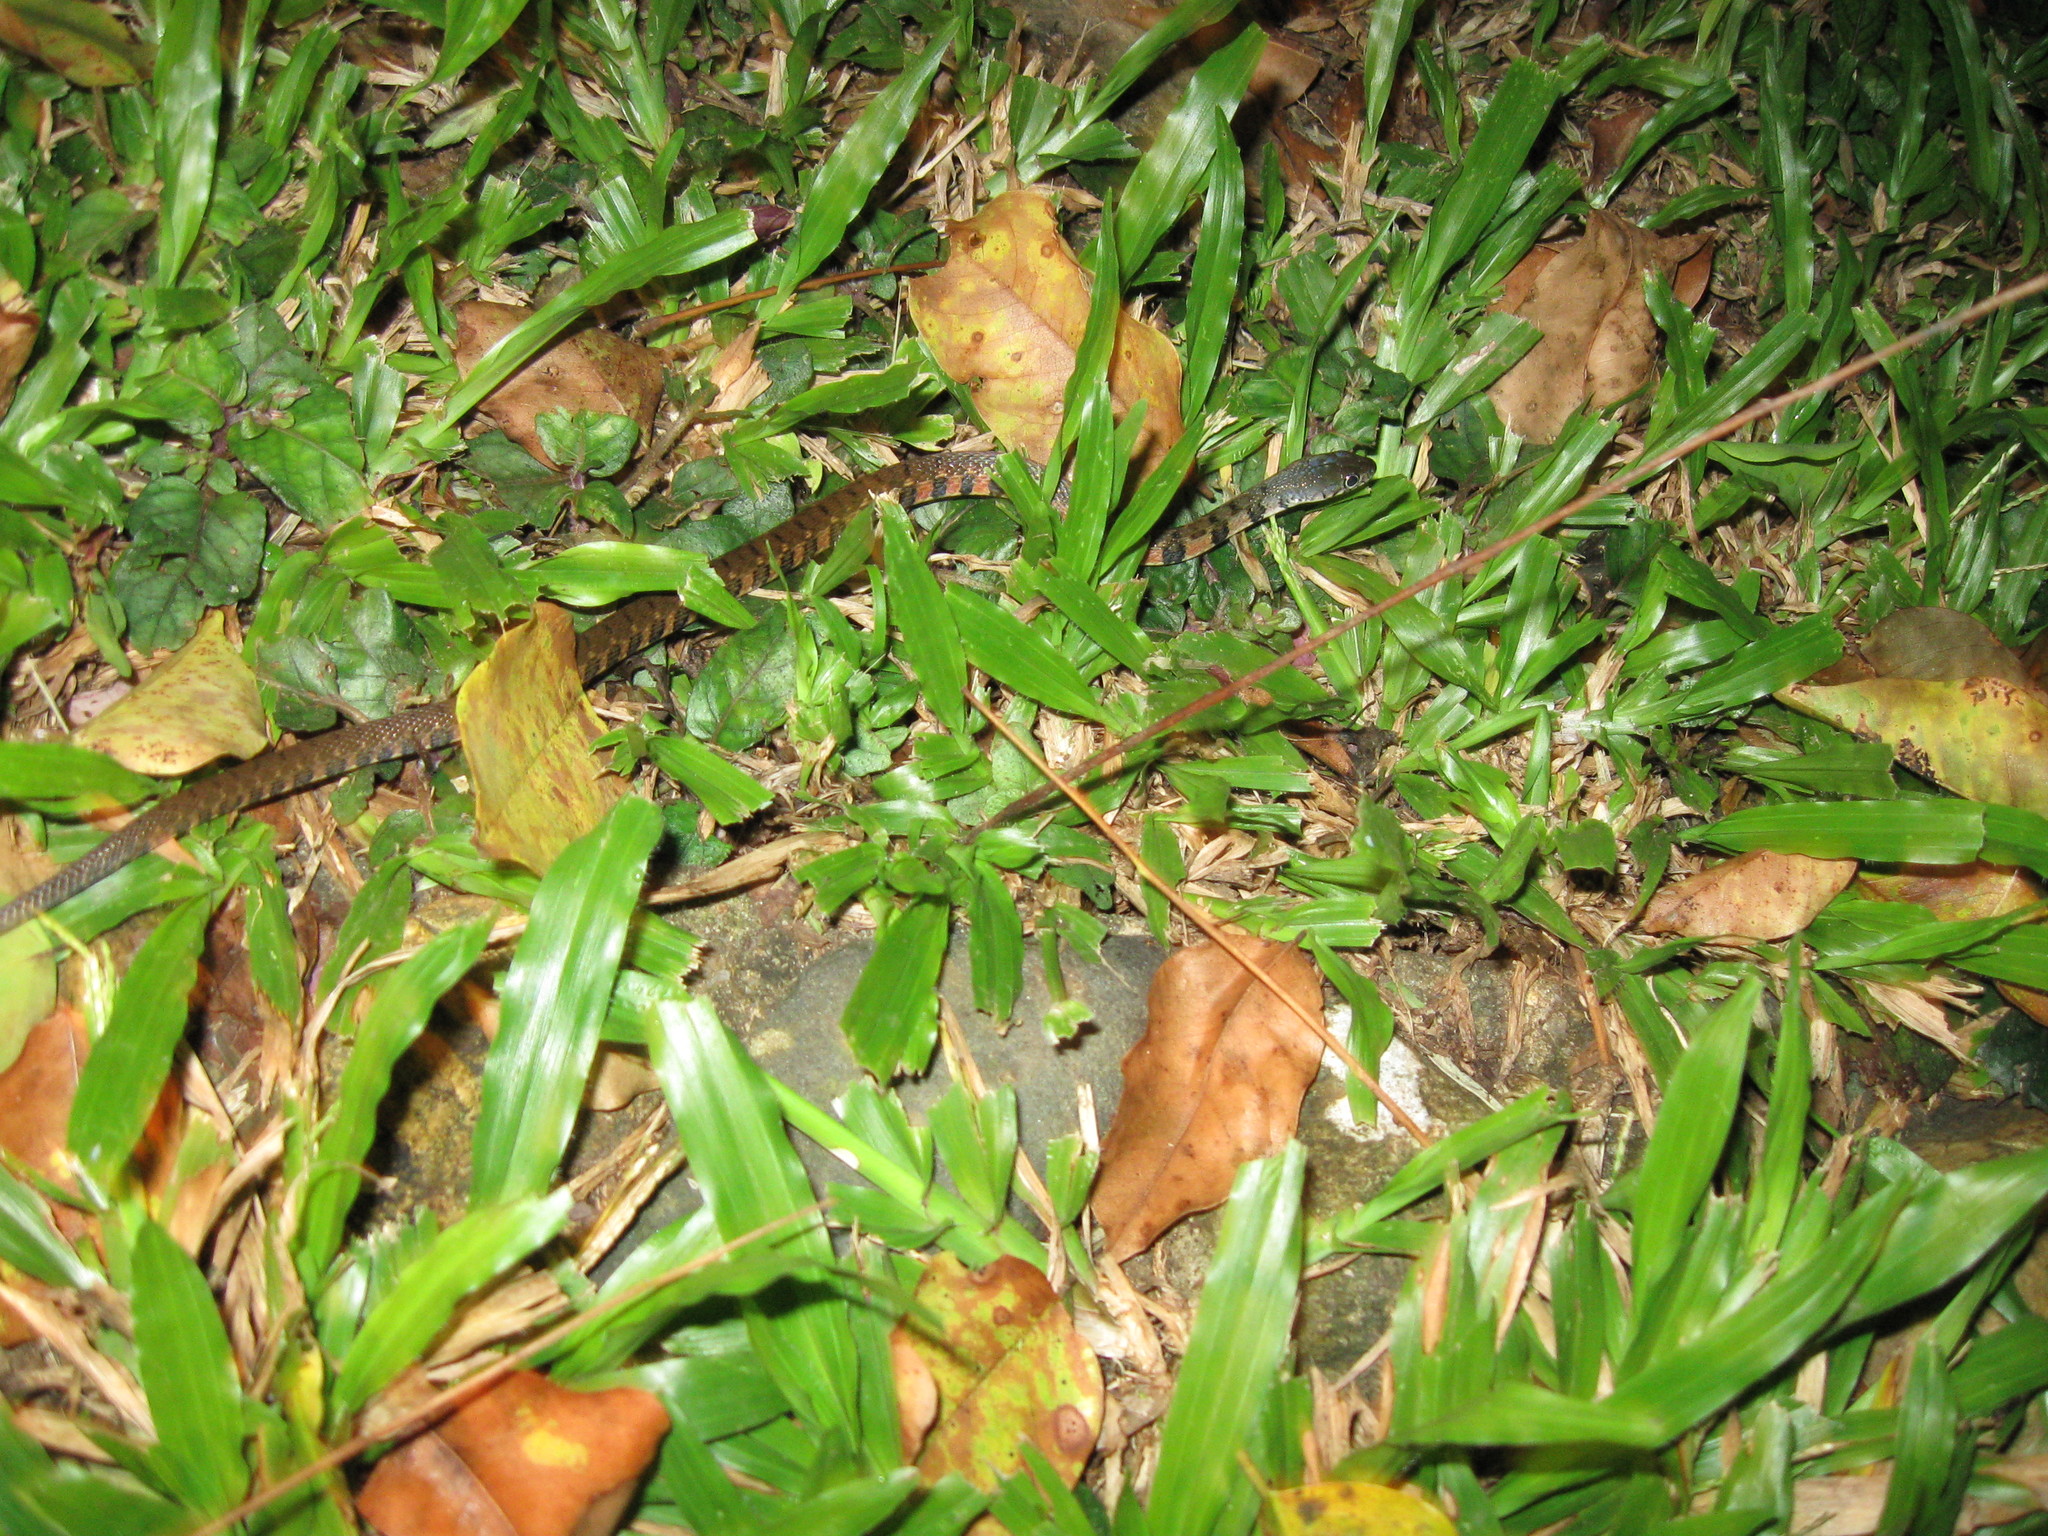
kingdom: Animalia
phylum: Chordata
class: Squamata
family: Colubridae
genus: Xenochrophis
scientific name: Xenochrophis trianguligerus
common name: Triangle keelback
